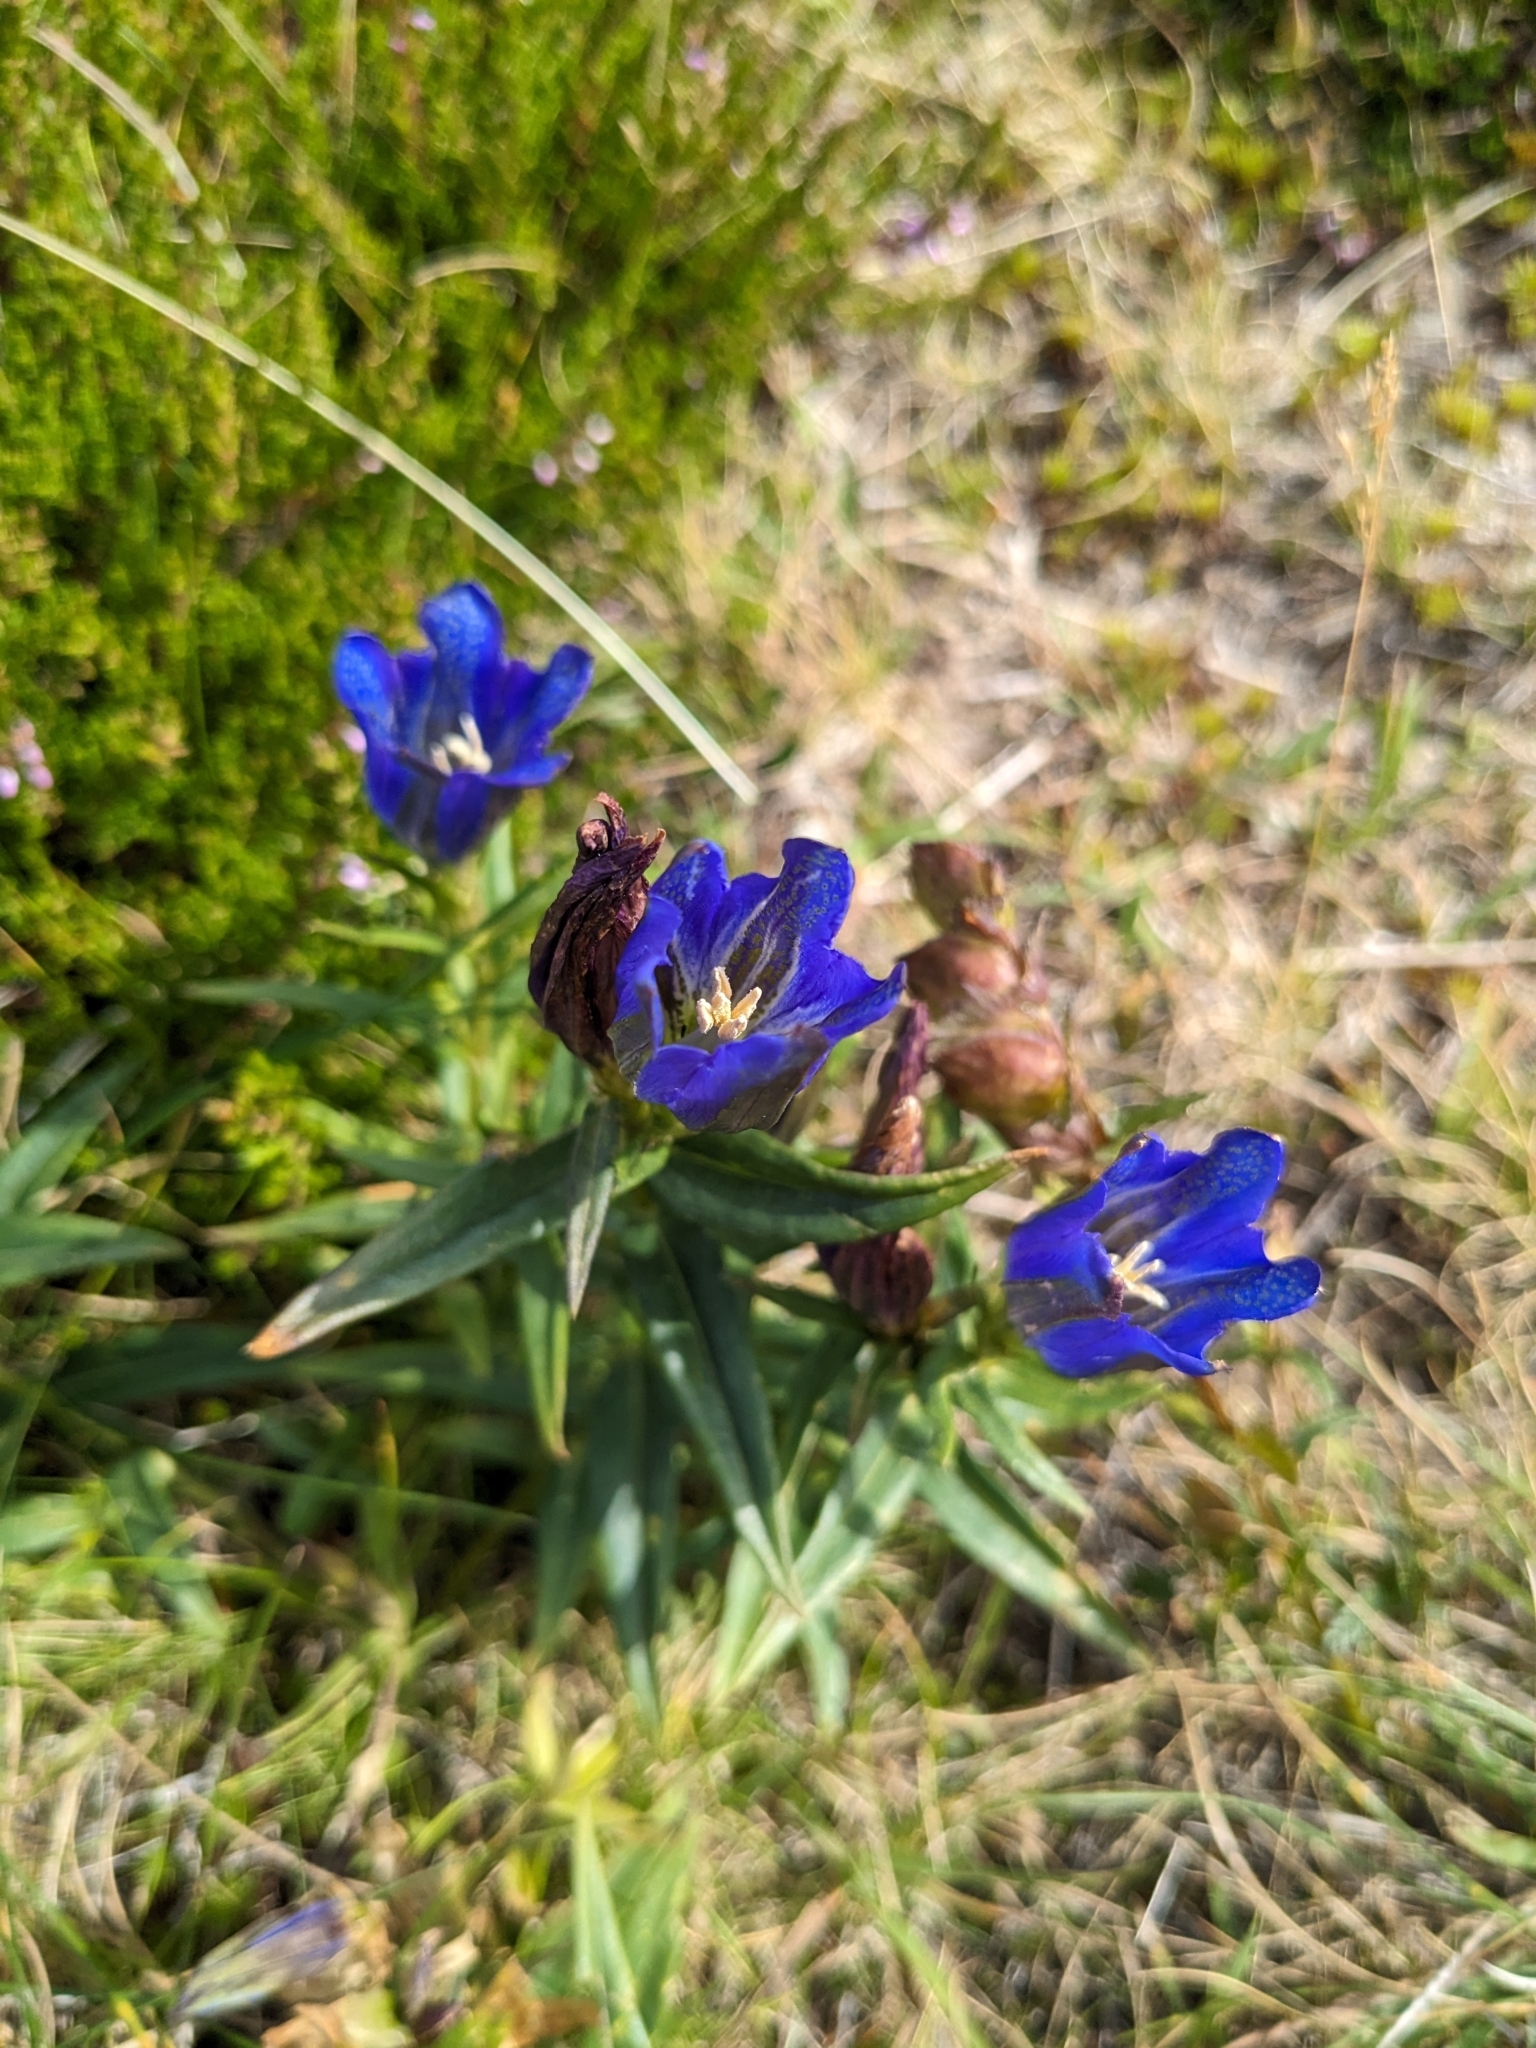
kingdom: Plantae
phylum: Tracheophyta
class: Magnoliopsida
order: Gentianales
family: Gentianaceae
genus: Gentiana
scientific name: Gentiana pneumonanthe
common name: Marsh gentian
